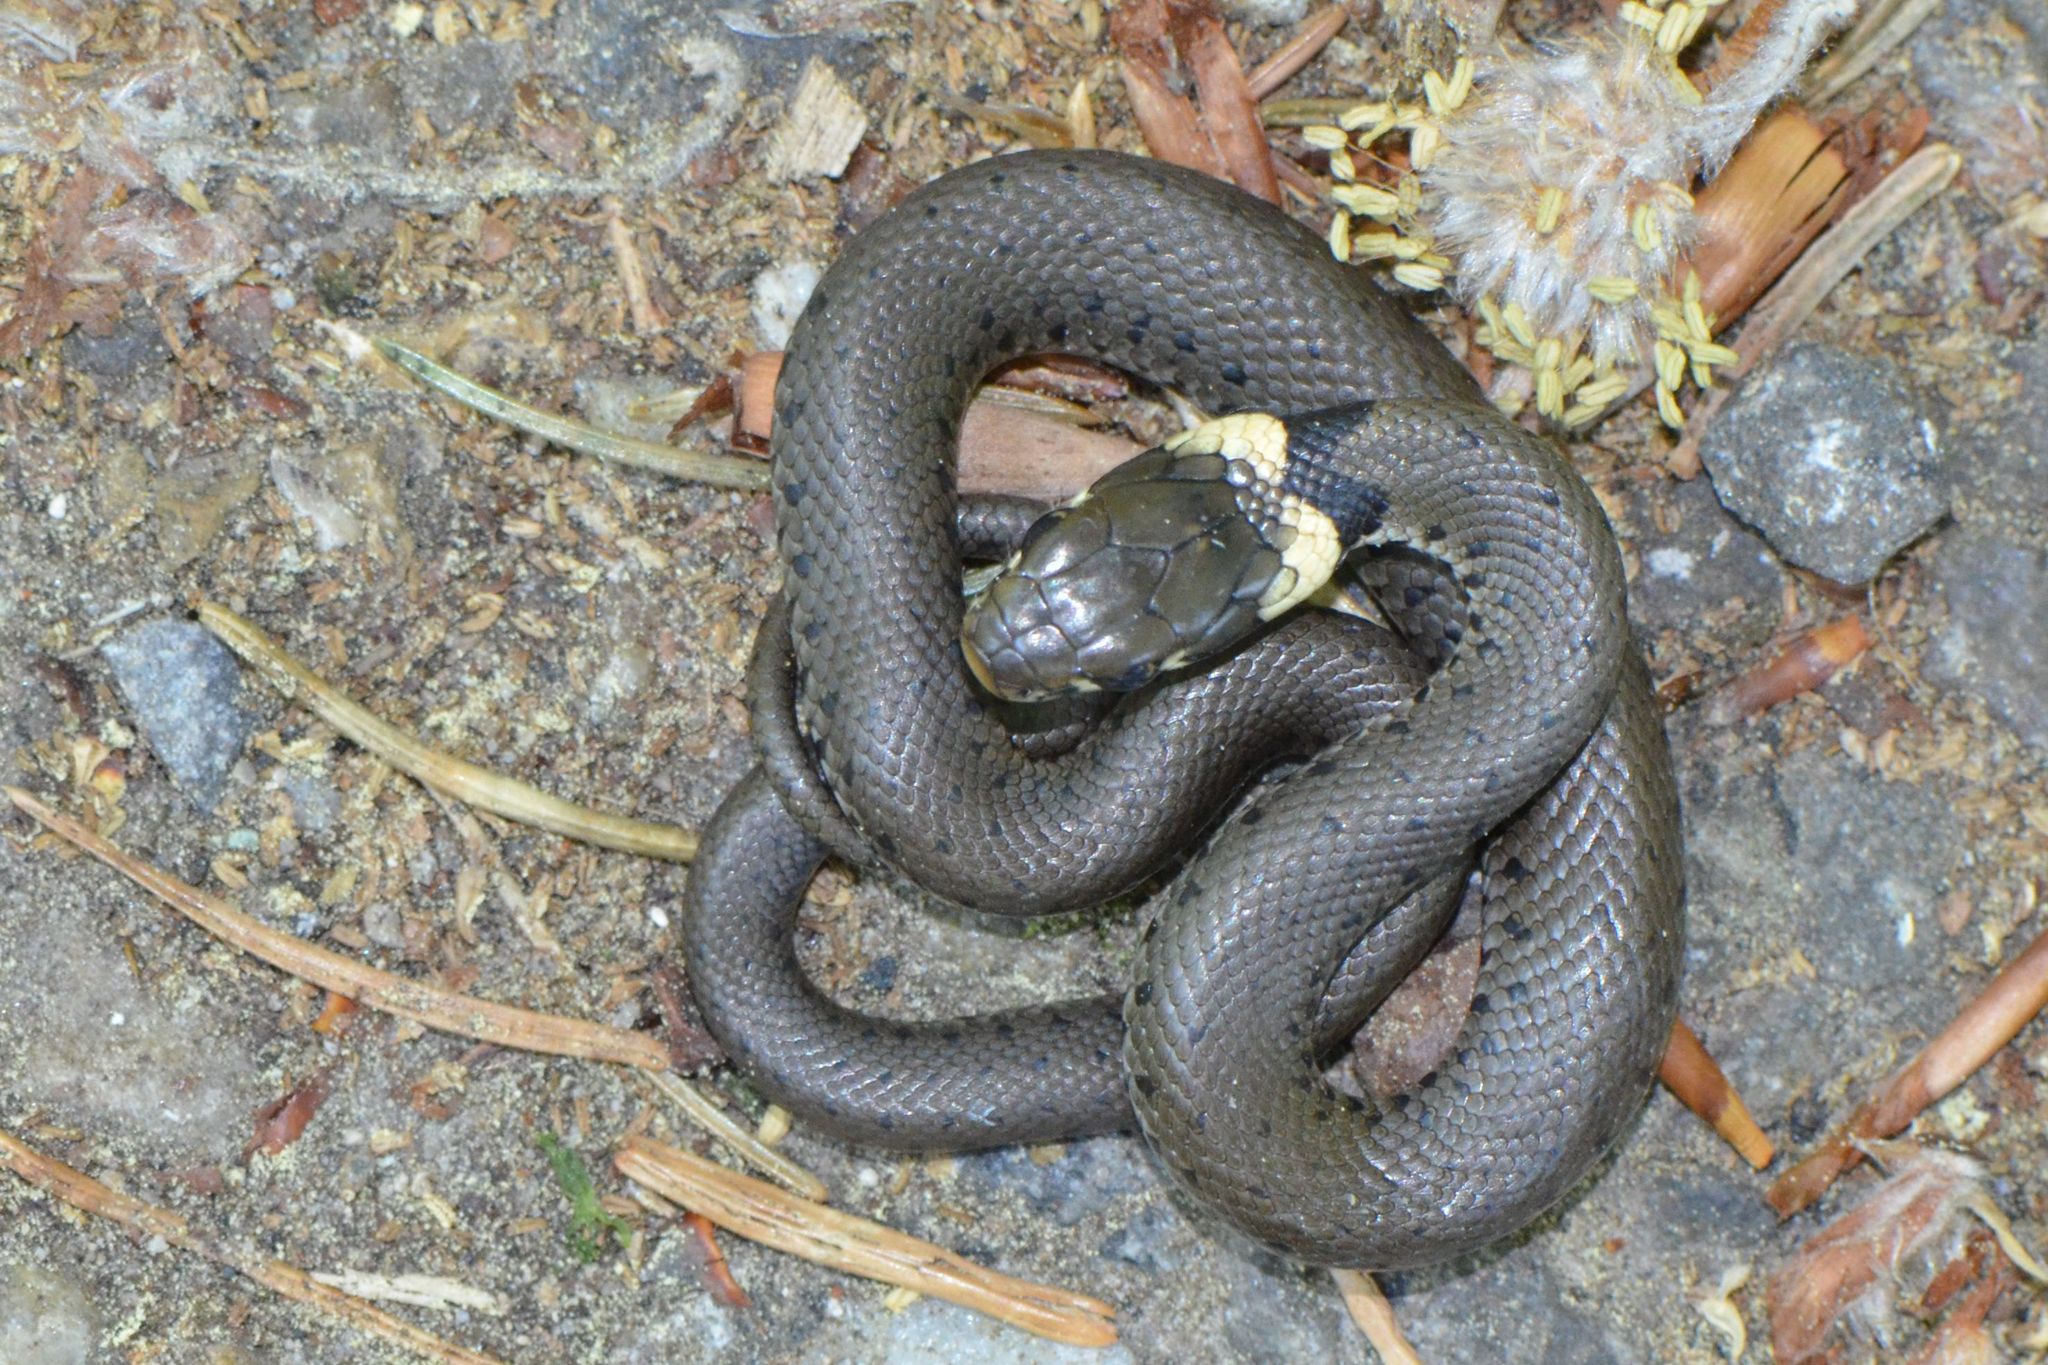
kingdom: Animalia
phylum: Chordata
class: Squamata
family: Colubridae
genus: Natrix
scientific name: Natrix helvetica
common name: Banded grass snake
